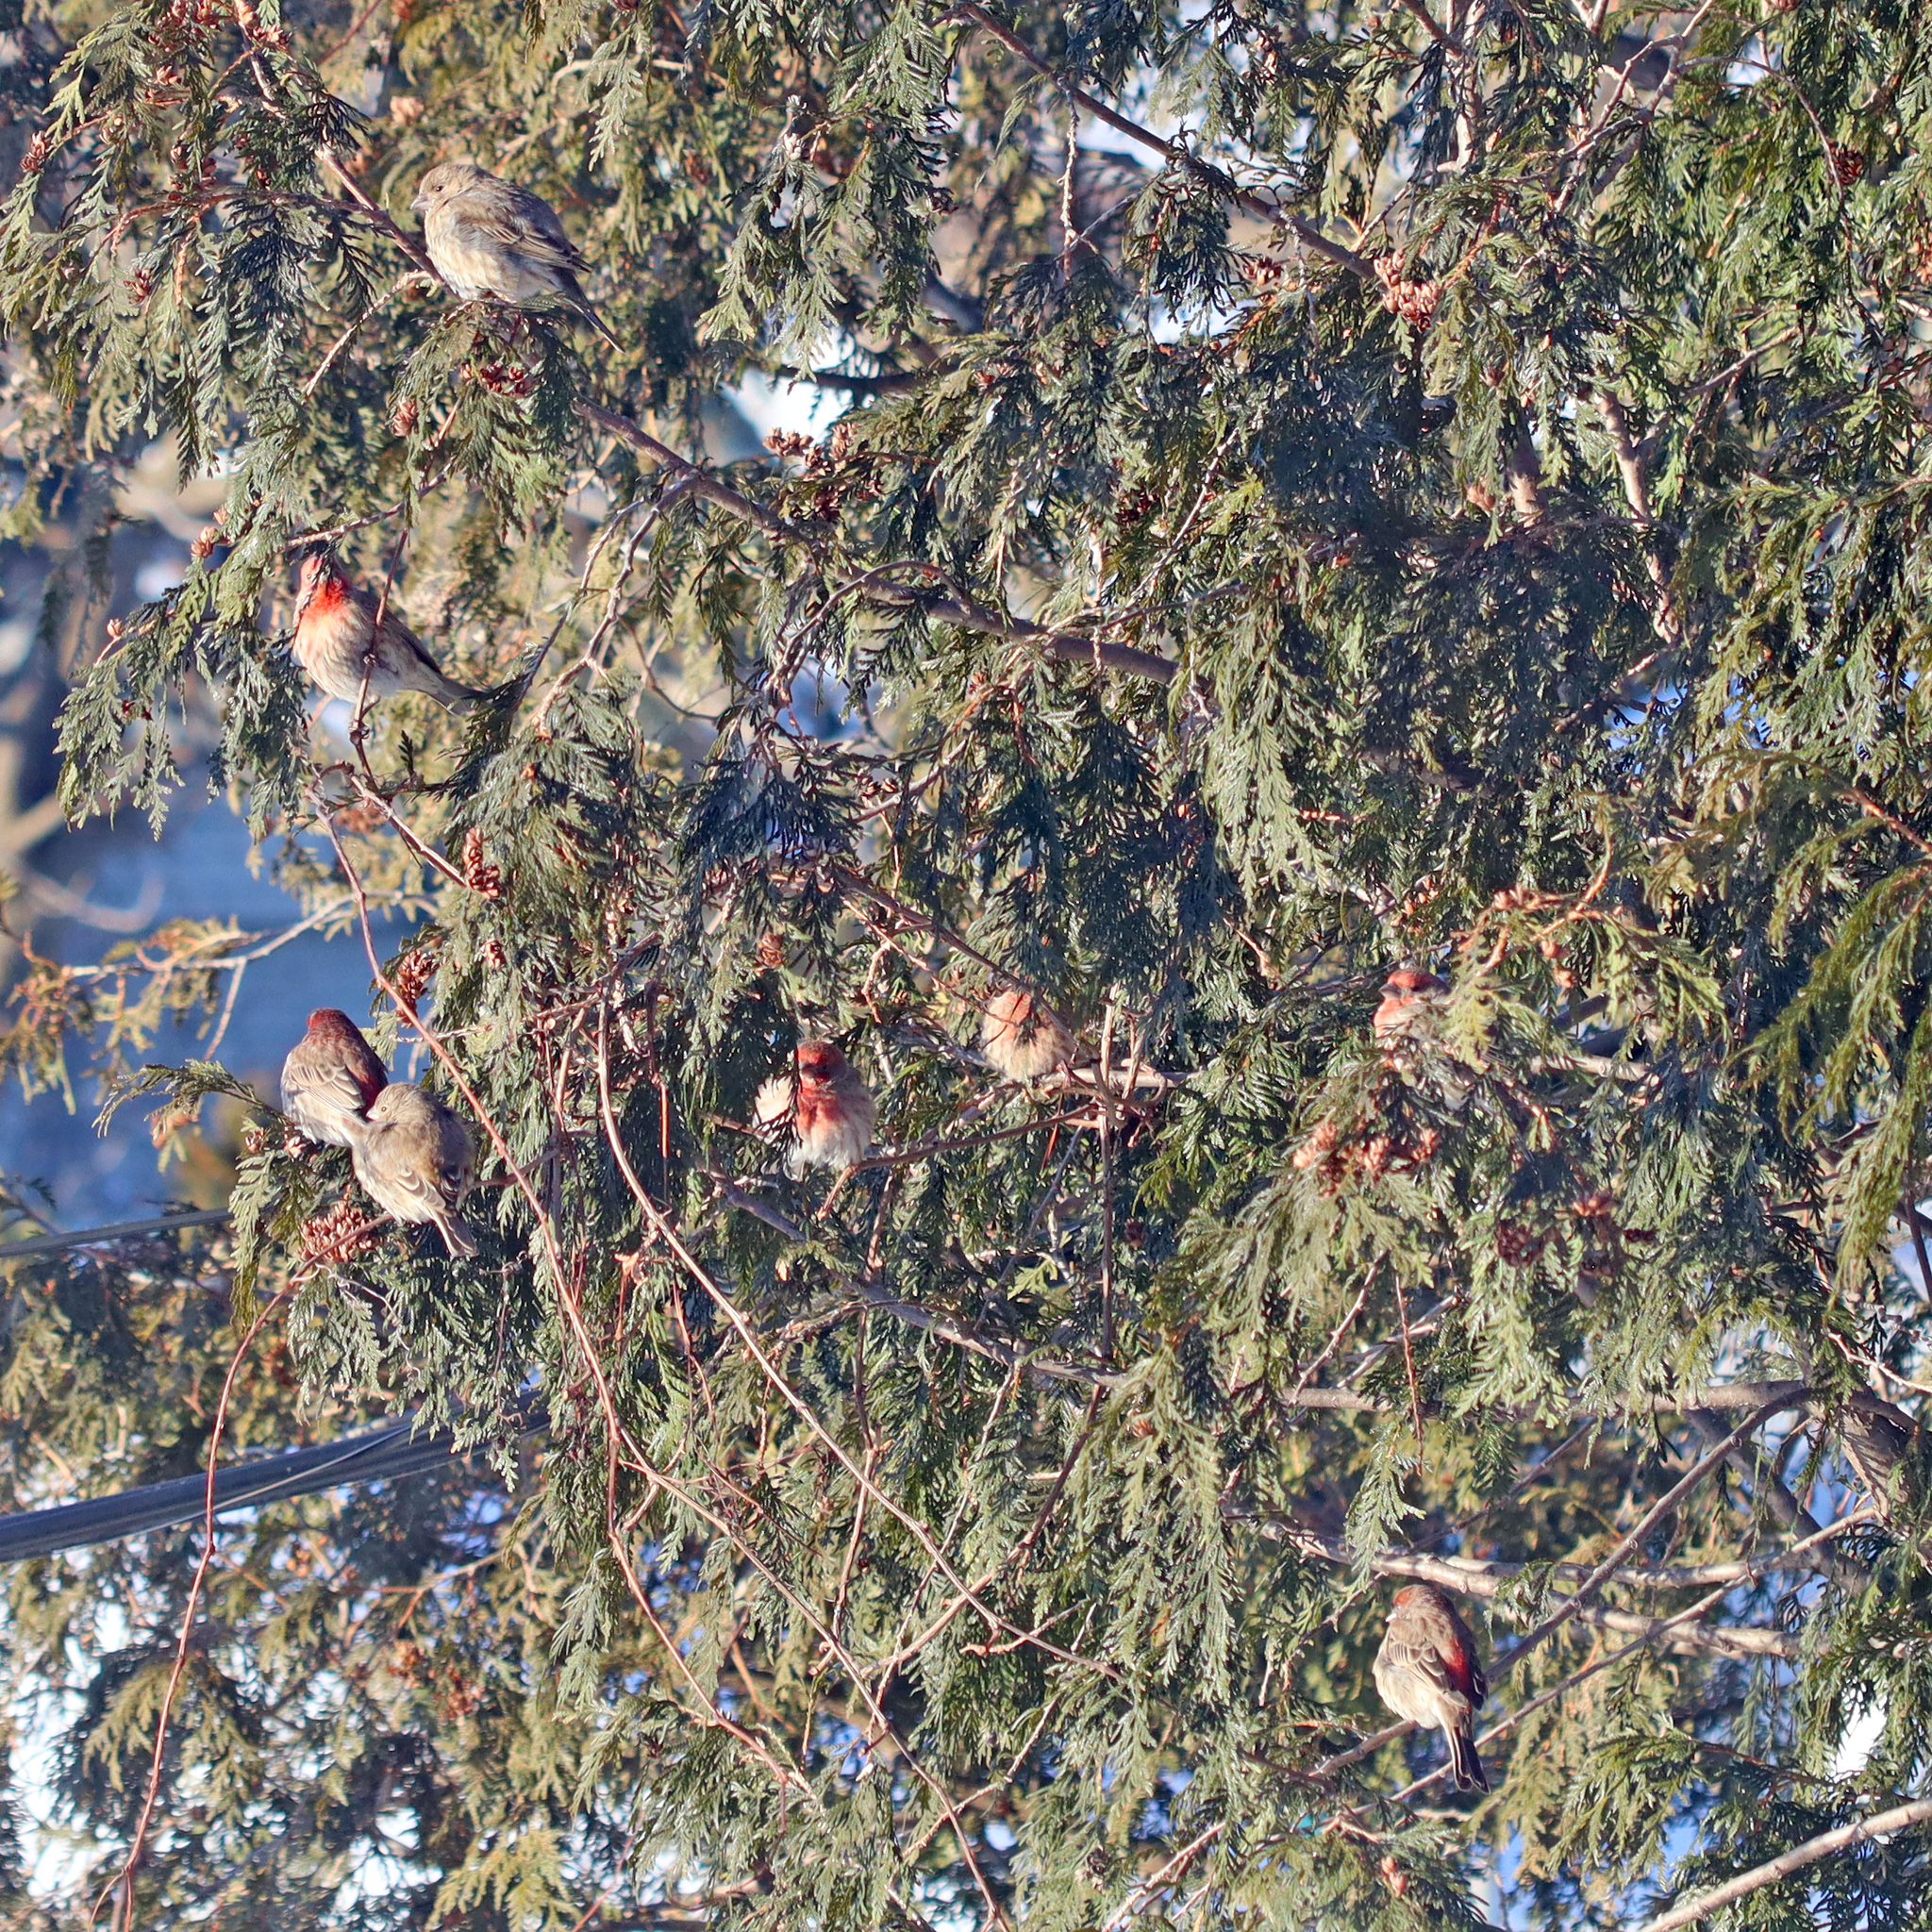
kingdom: Animalia
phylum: Chordata
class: Aves
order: Passeriformes
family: Fringillidae
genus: Haemorhous
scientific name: Haemorhous mexicanus
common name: House finch
